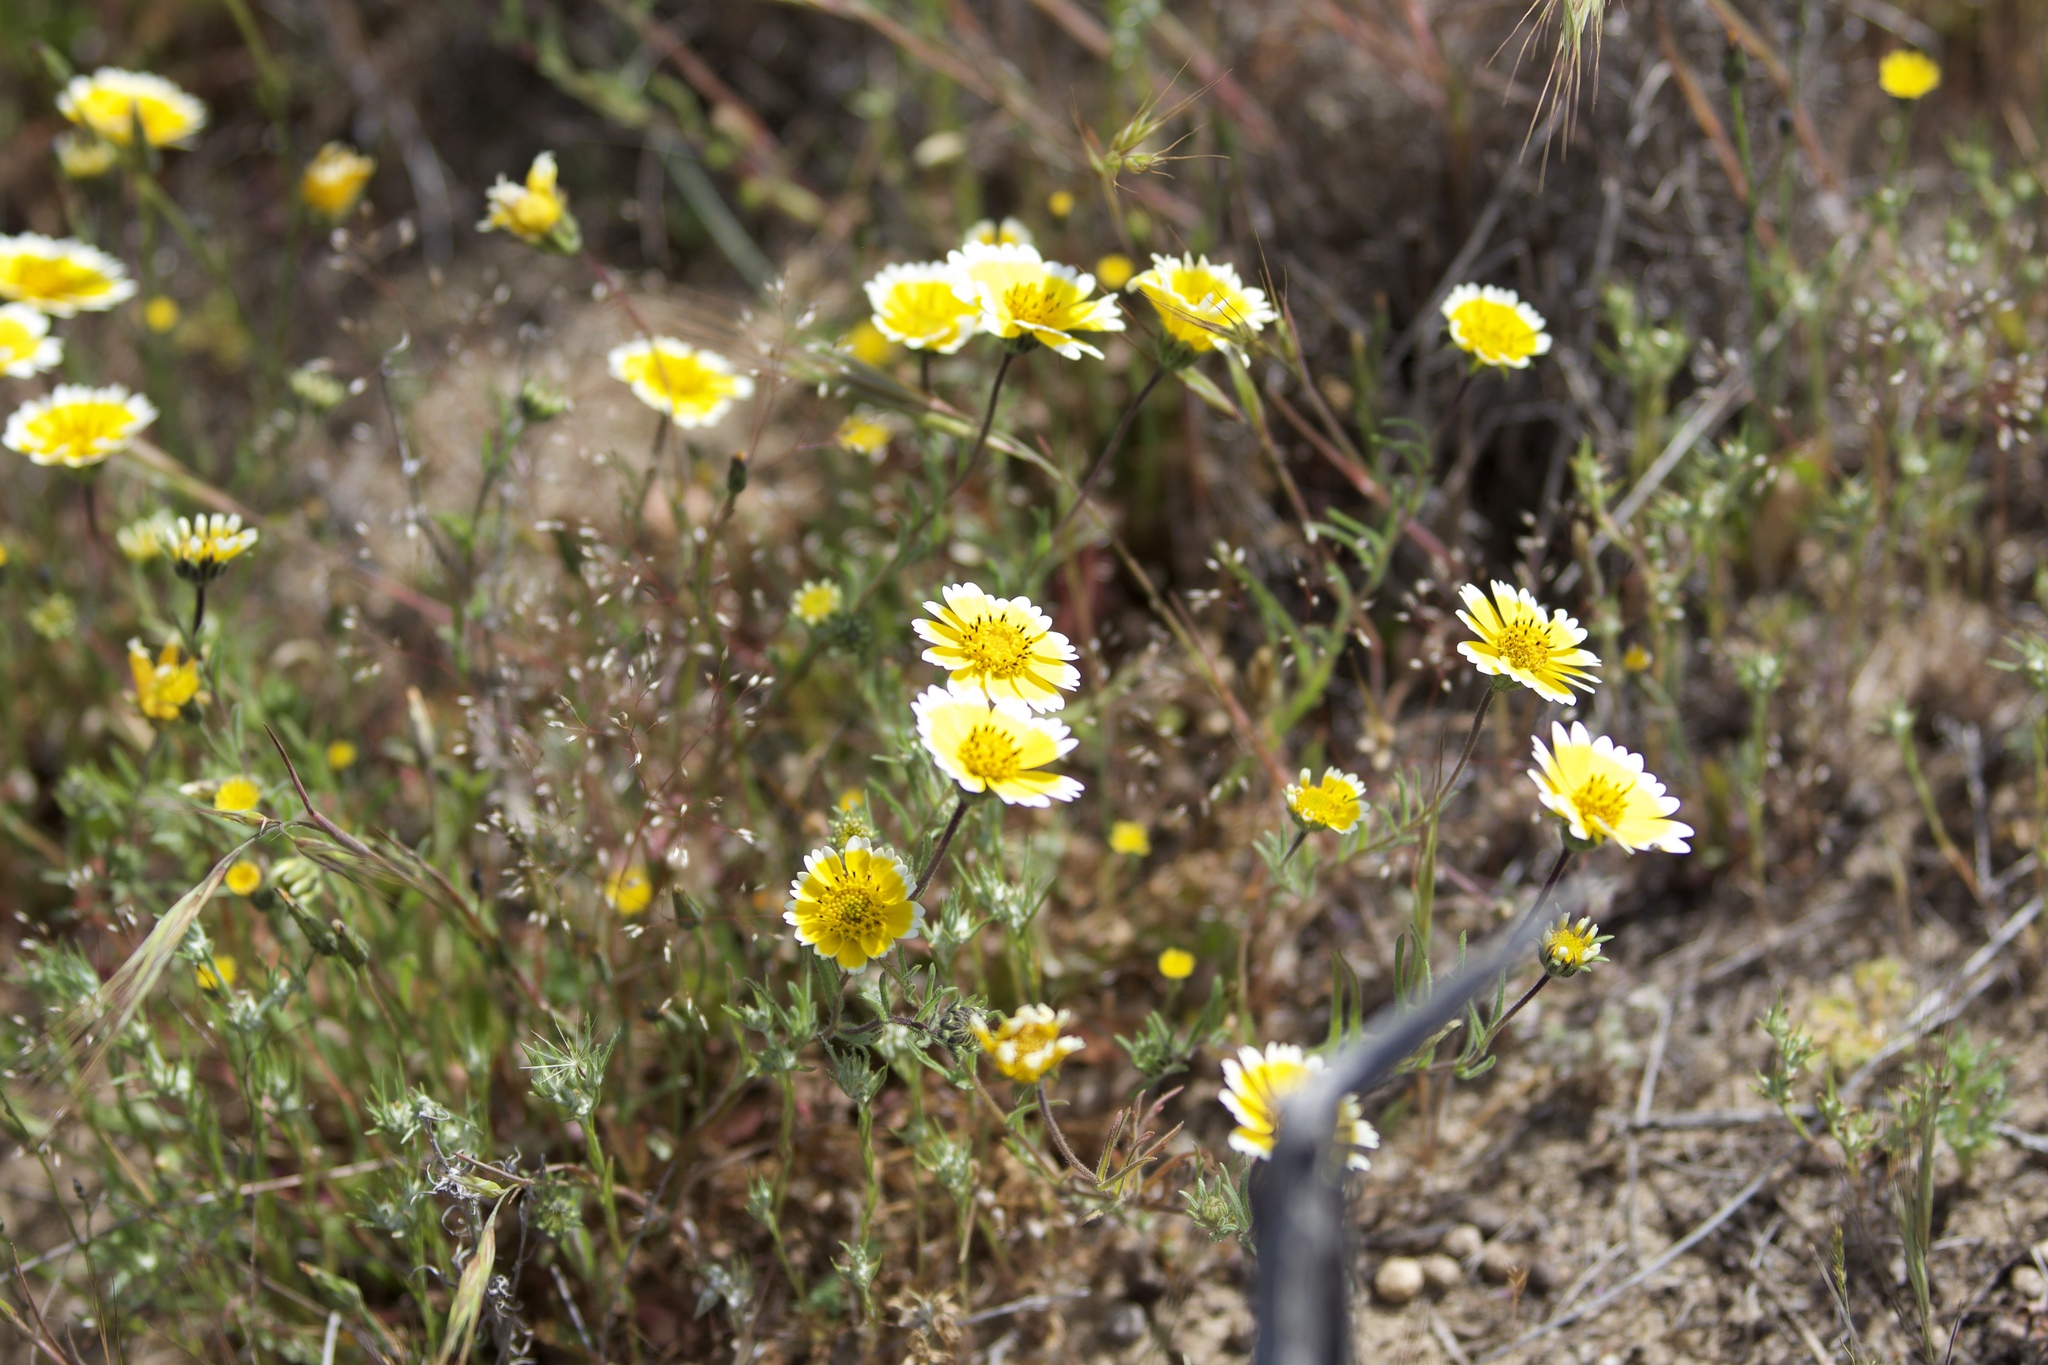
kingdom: Plantae
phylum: Tracheophyta
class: Magnoliopsida
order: Asterales
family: Asteraceae
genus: Layia
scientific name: Layia platyglossa
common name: Tidy-tips
